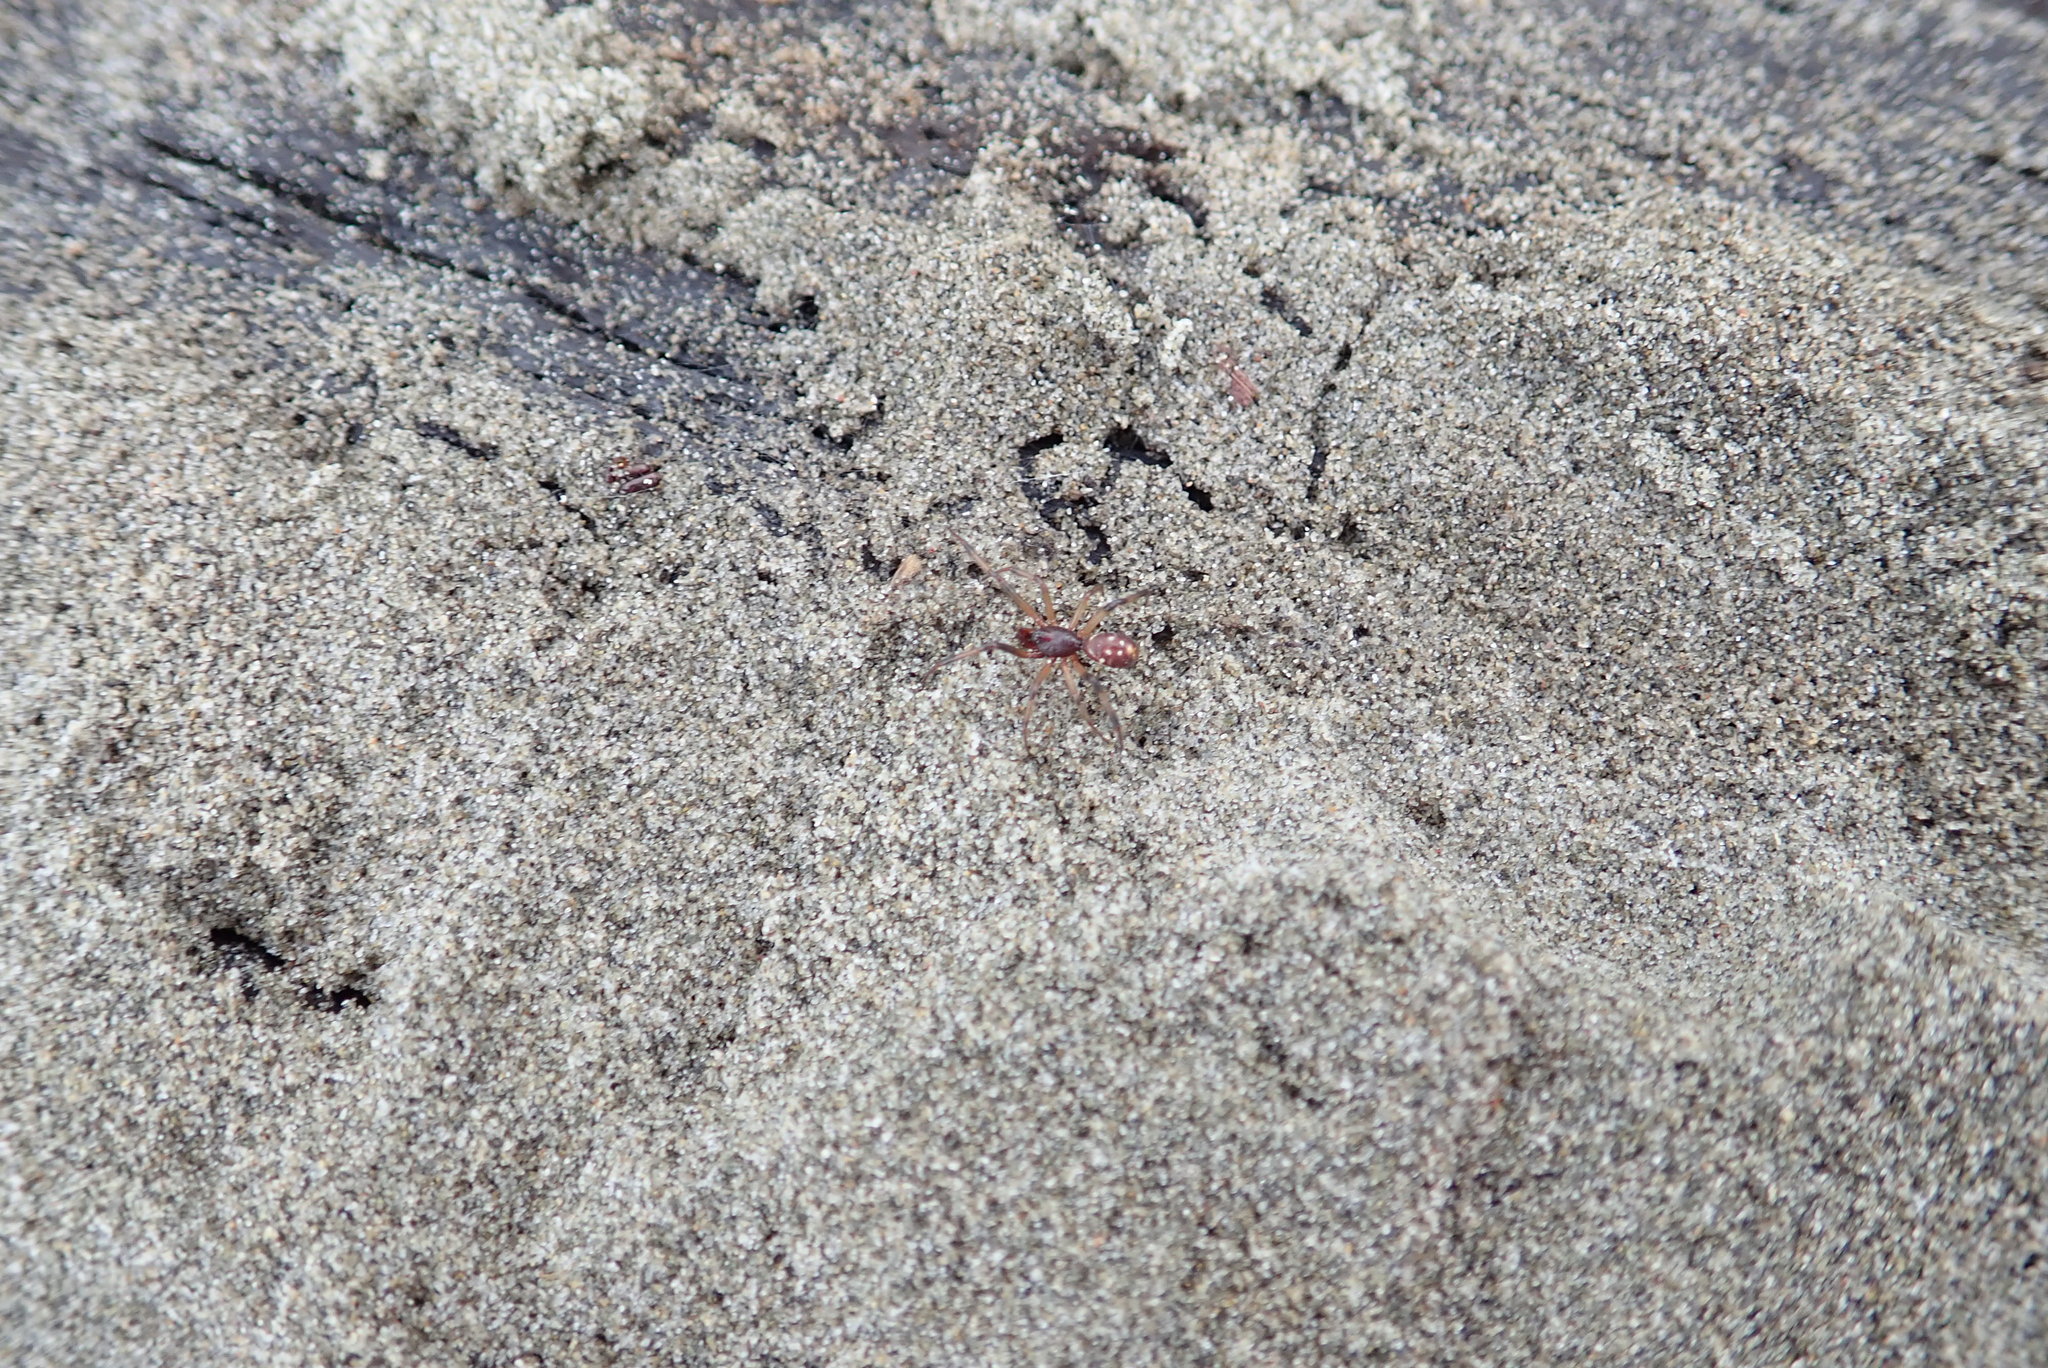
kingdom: Animalia
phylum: Arthropoda
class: Arachnida
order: Araneae
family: Theridiidae
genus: Steatoda
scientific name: Steatoda capensis
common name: Cobweb weaver
